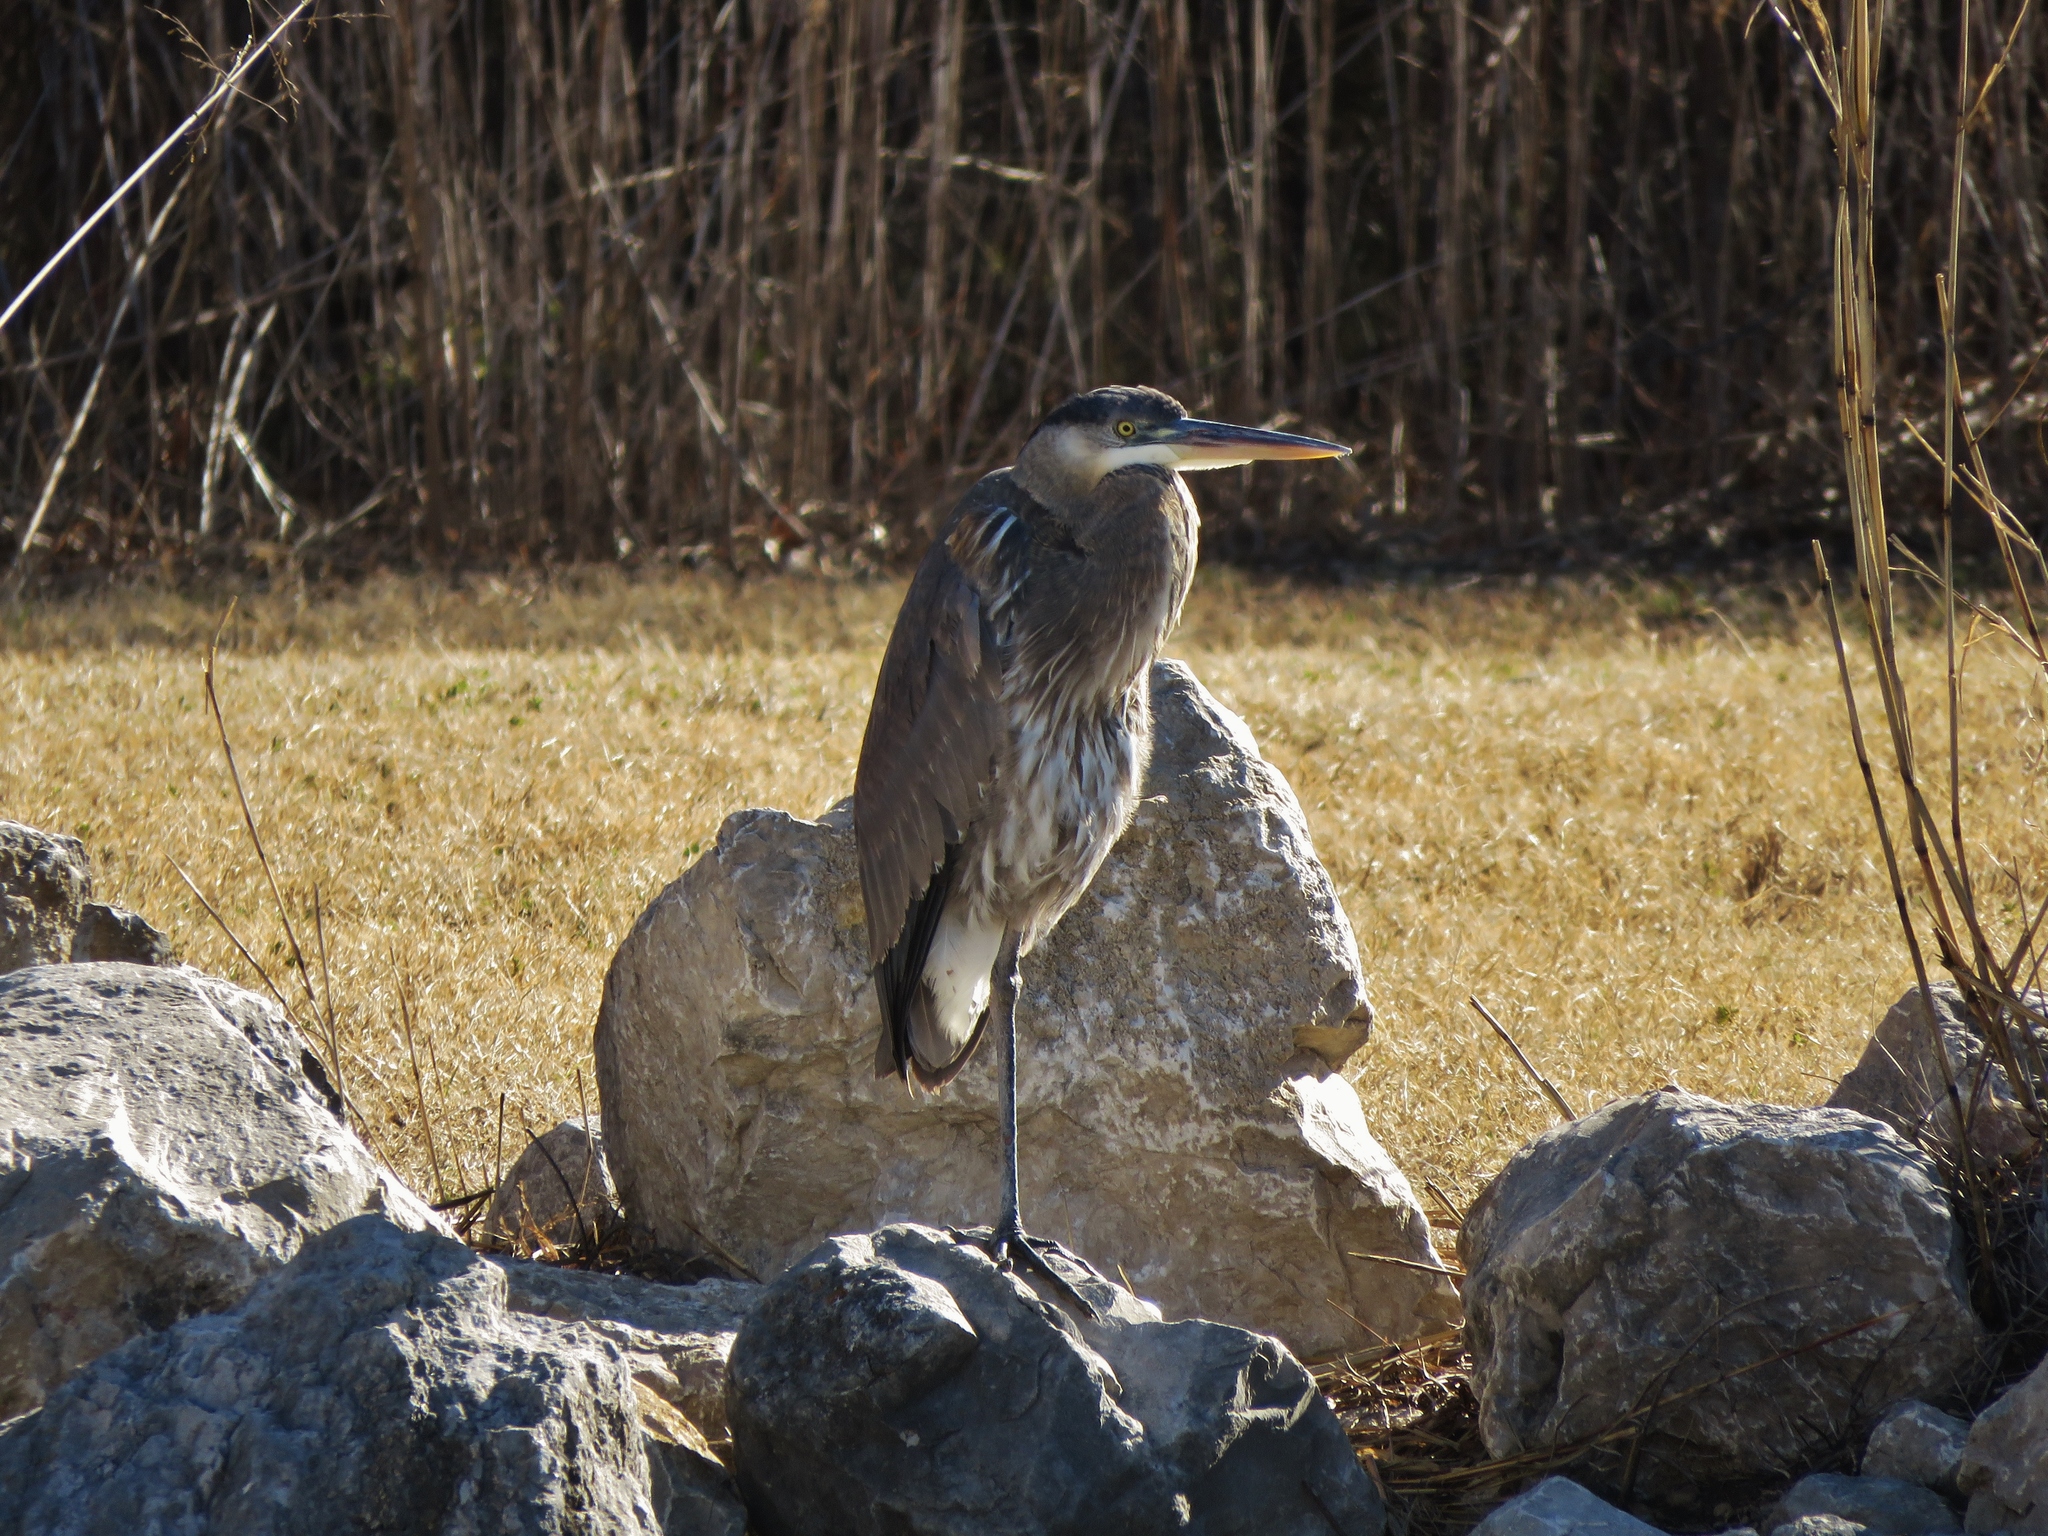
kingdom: Animalia
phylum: Chordata
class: Aves
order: Pelecaniformes
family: Ardeidae
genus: Ardea
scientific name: Ardea herodias
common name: Great blue heron
